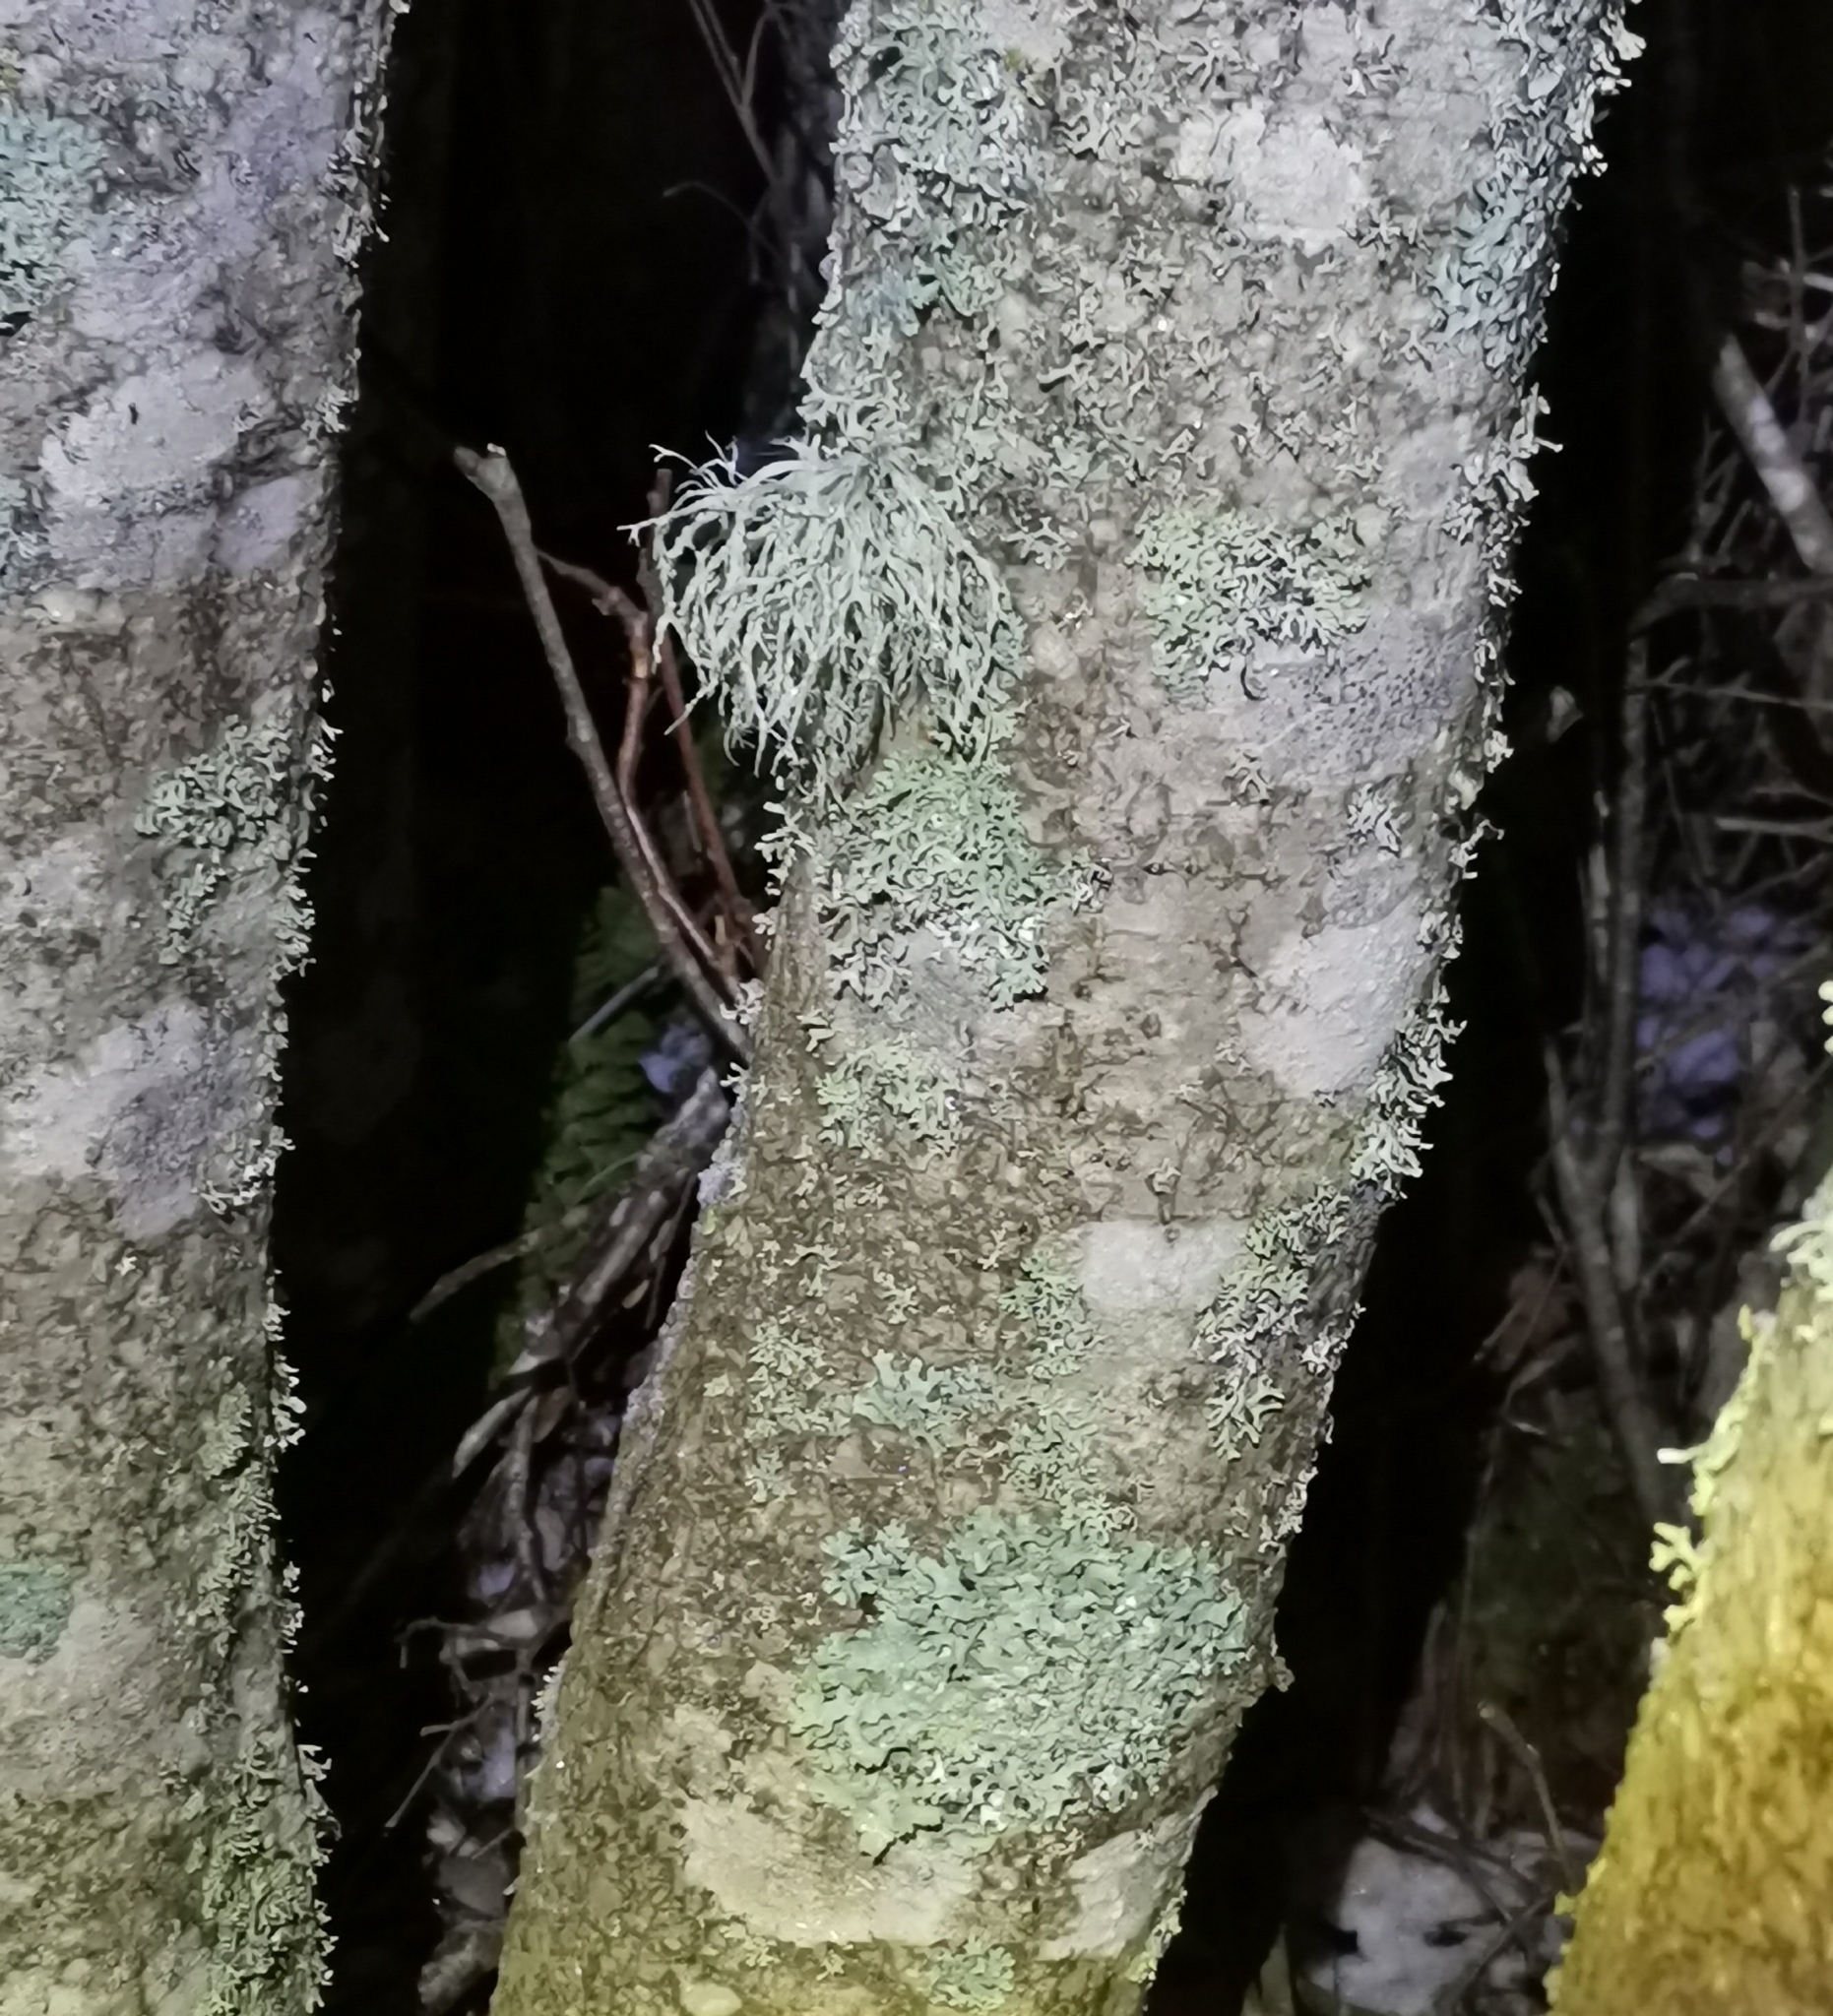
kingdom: Fungi
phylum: Ascomycota
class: Lecanoromycetes
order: Lecanorales
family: Ramalinaceae
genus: Ramalina
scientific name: Ramalina farinacea
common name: Farinose cartilage lichen
